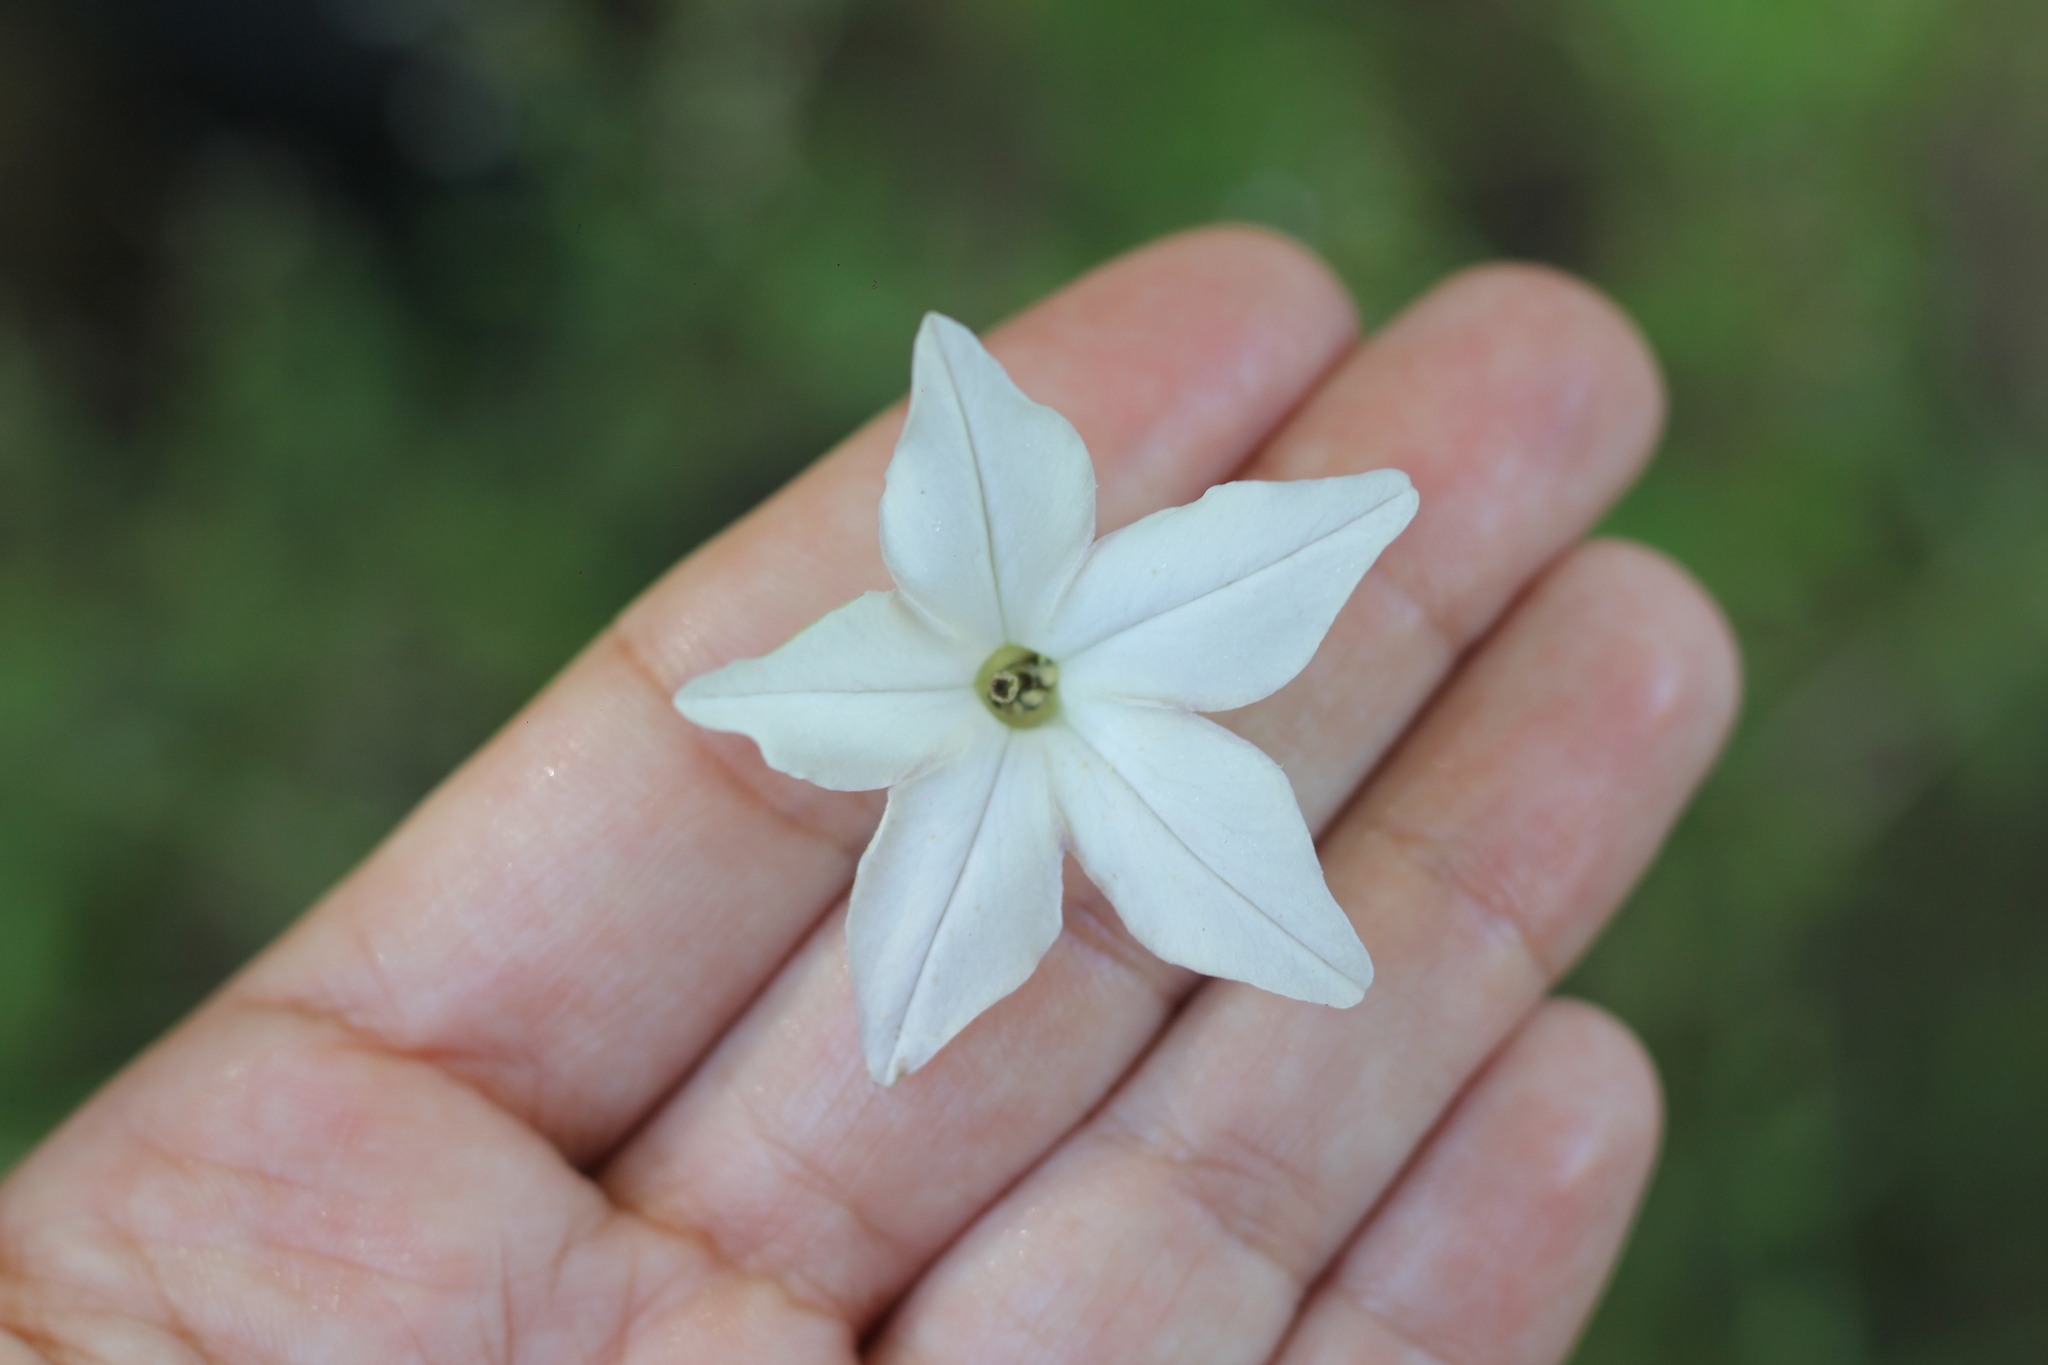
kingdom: Plantae
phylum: Tracheophyta
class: Magnoliopsida
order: Solanales
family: Solanaceae
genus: Nicotiana
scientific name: Nicotiana longiflora
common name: Long-flowered tobacco
